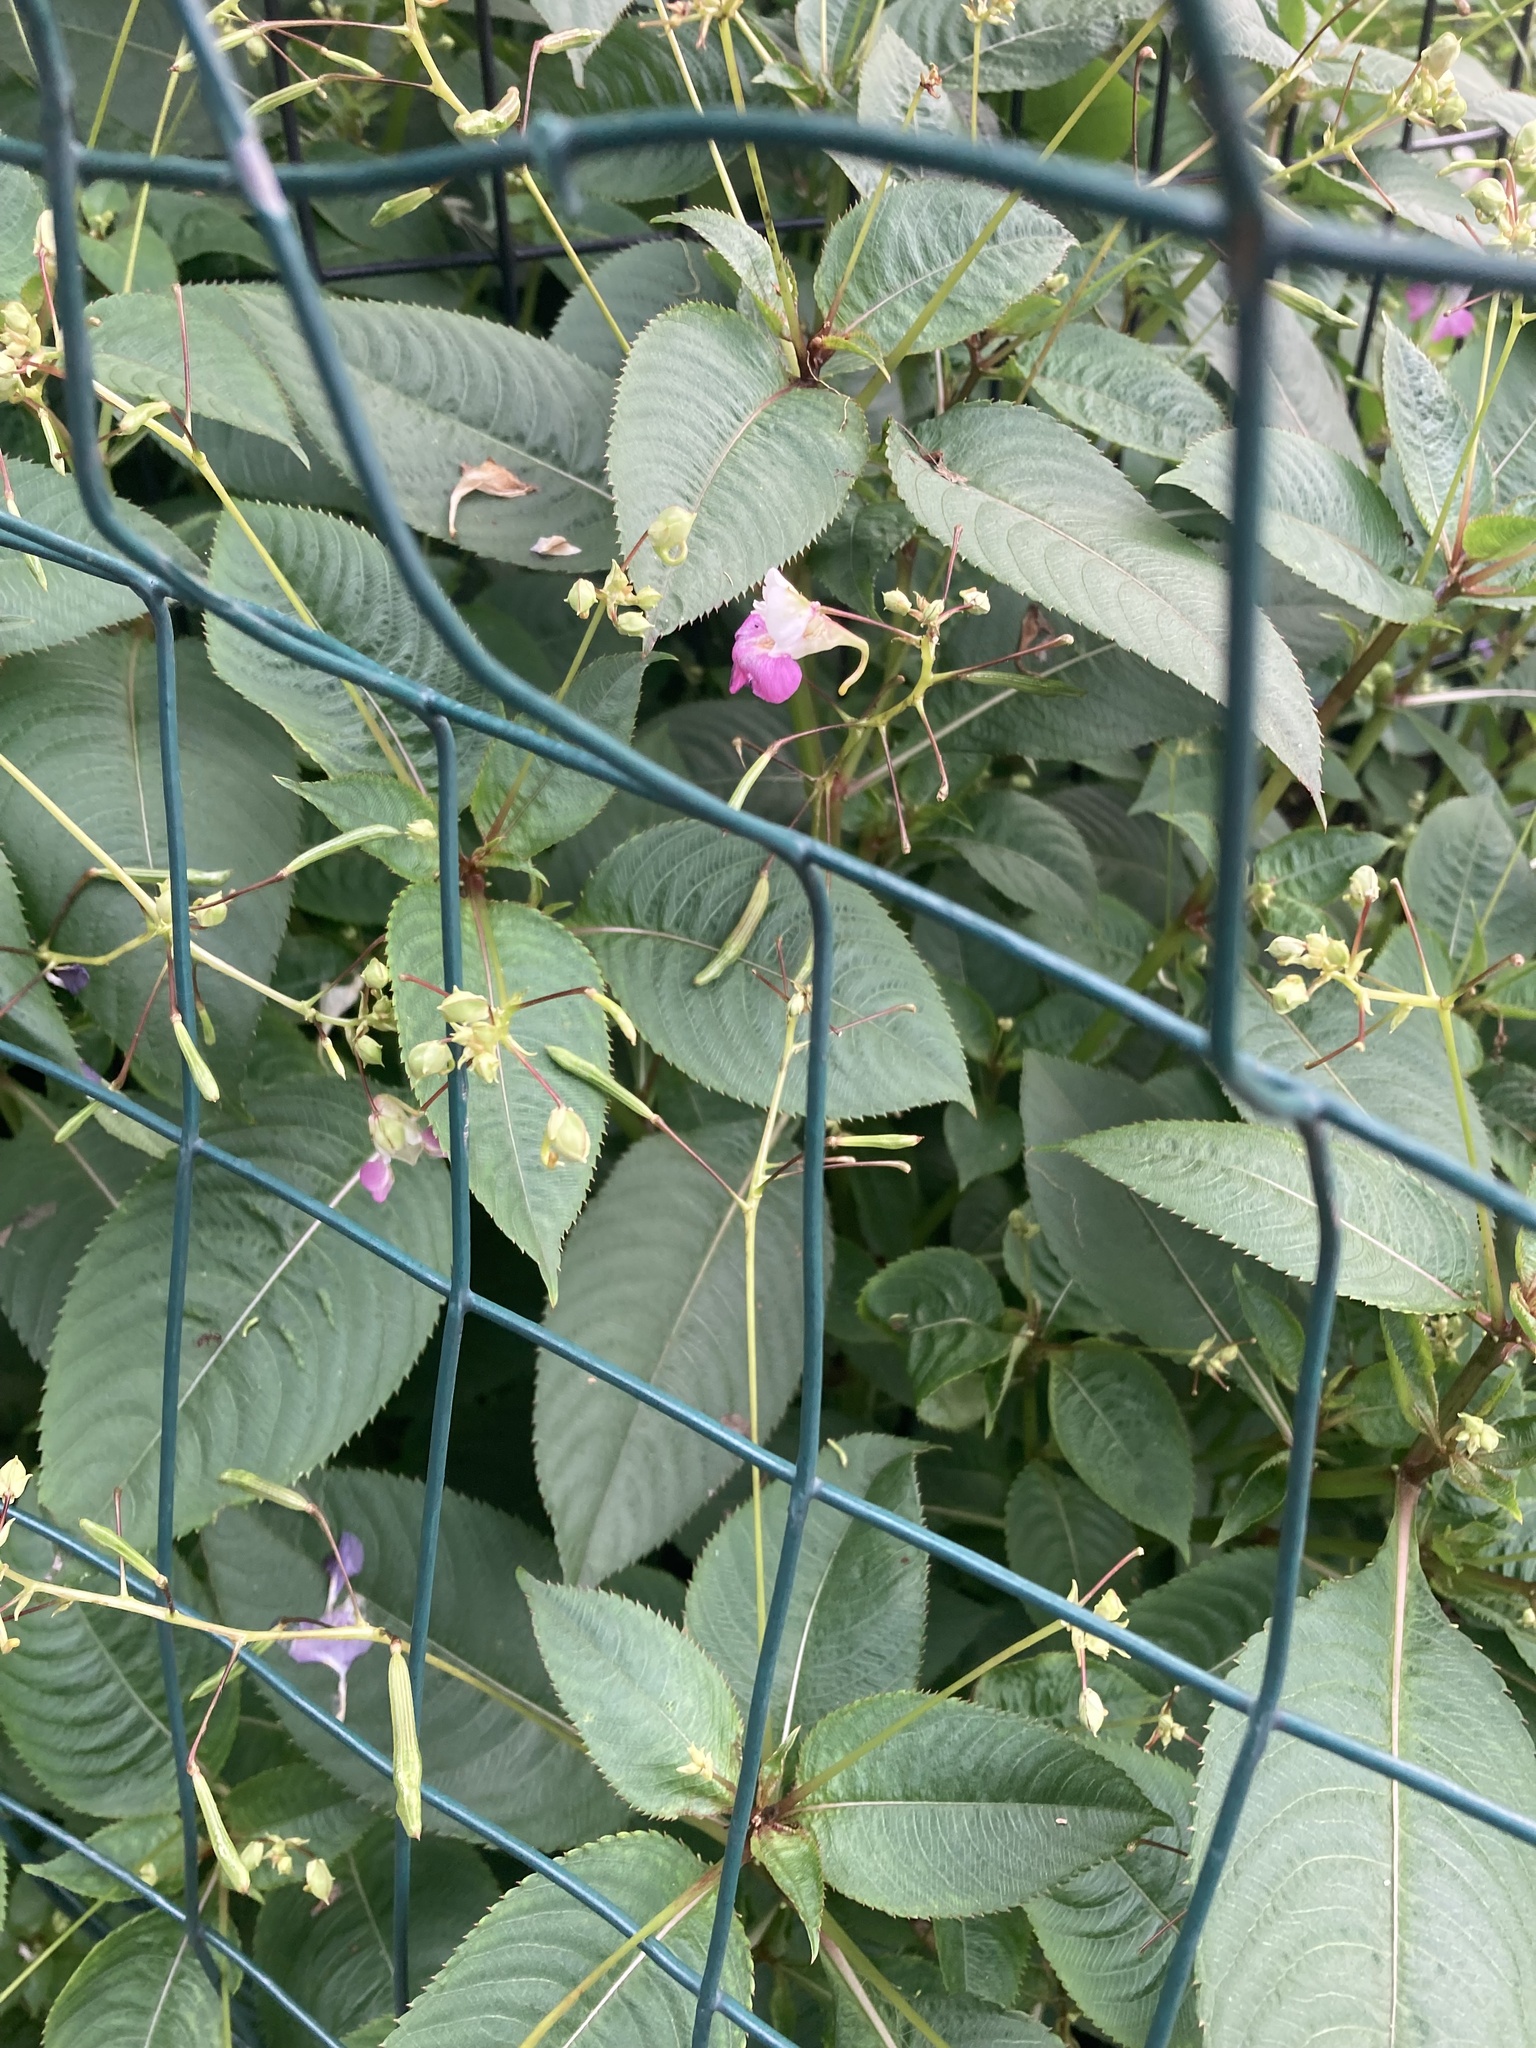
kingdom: Plantae
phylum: Tracheophyta
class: Magnoliopsida
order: Ericales
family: Balsaminaceae
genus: Impatiens
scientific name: Impatiens balfourii
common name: Balfour's touch-me-not
